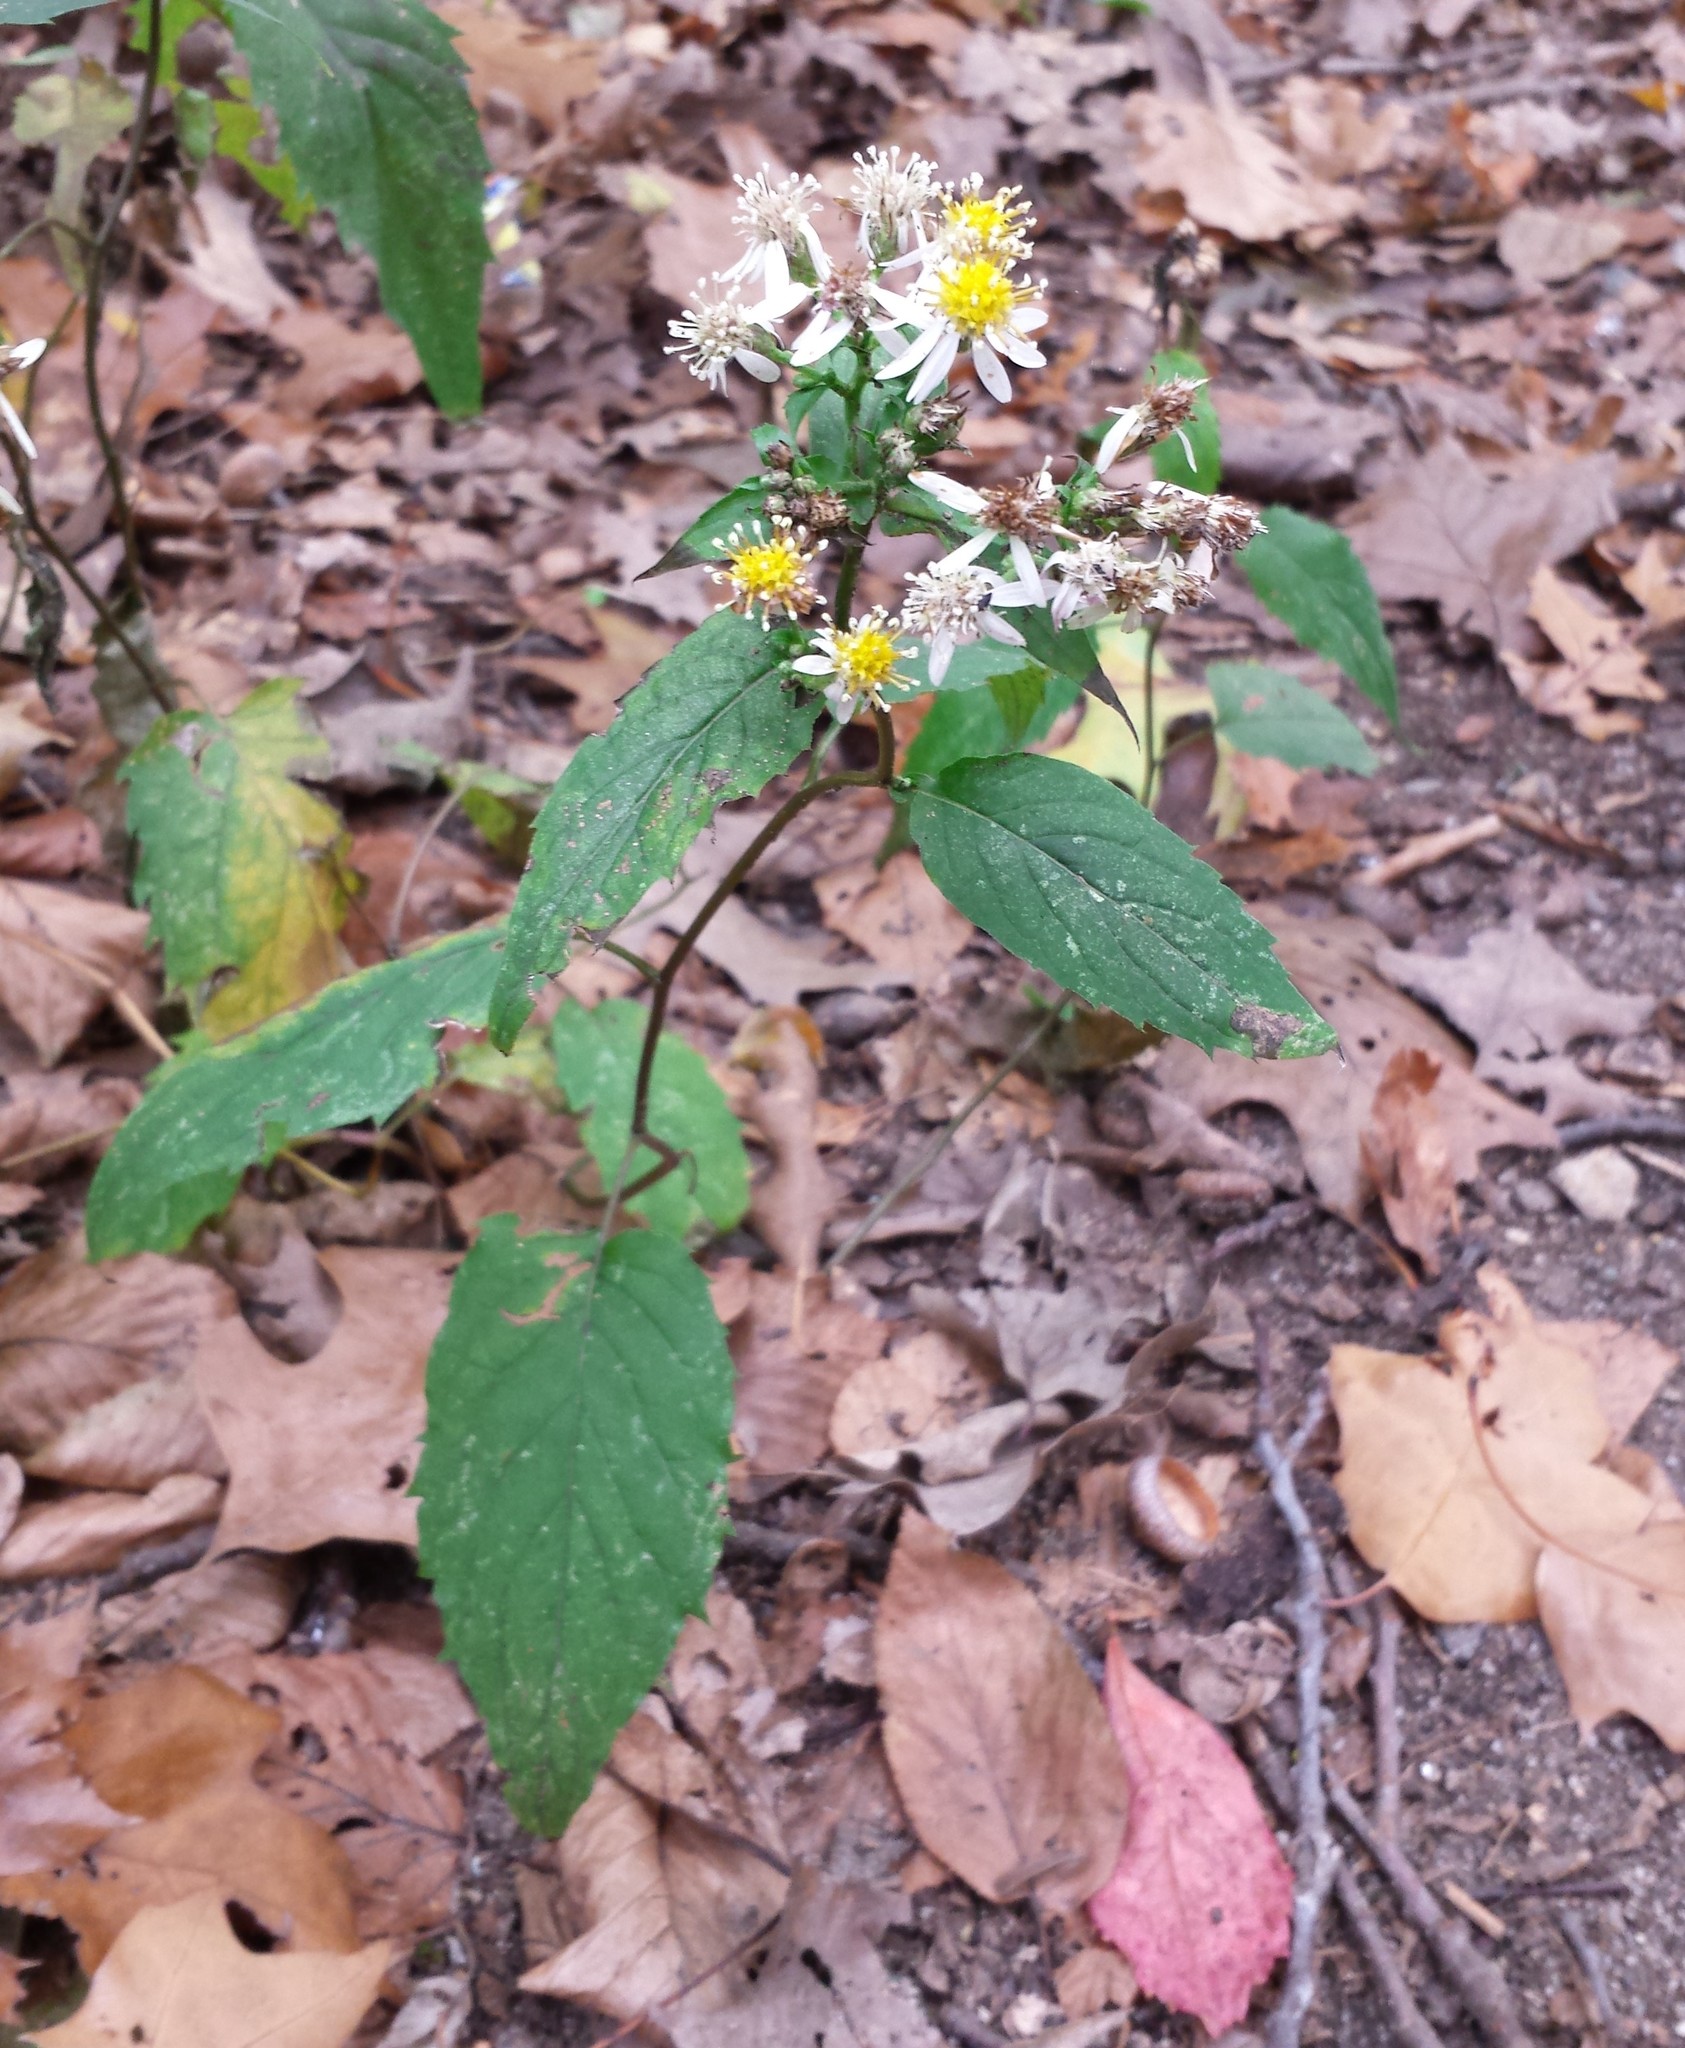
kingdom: Plantae
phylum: Tracheophyta
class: Magnoliopsida
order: Asterales
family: Asteraceae
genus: Eurybia
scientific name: Eurybia divaricata
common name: White wood aster
